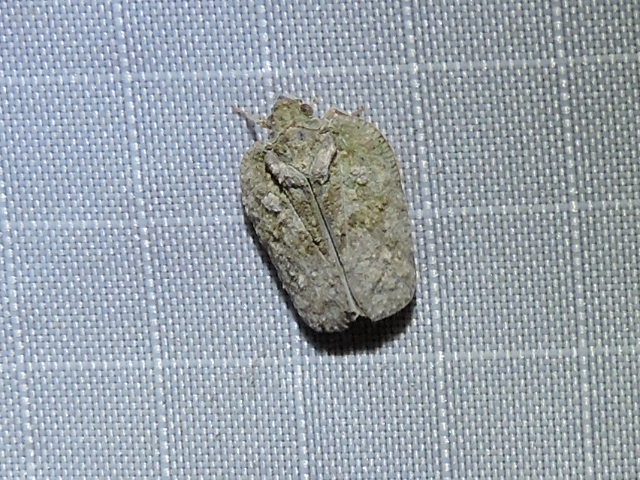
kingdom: Animalia
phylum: Arthropoda
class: Insecta
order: Hemiptera
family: Flatidae
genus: Flatoidinus
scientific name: Flatoidinus punctatus
